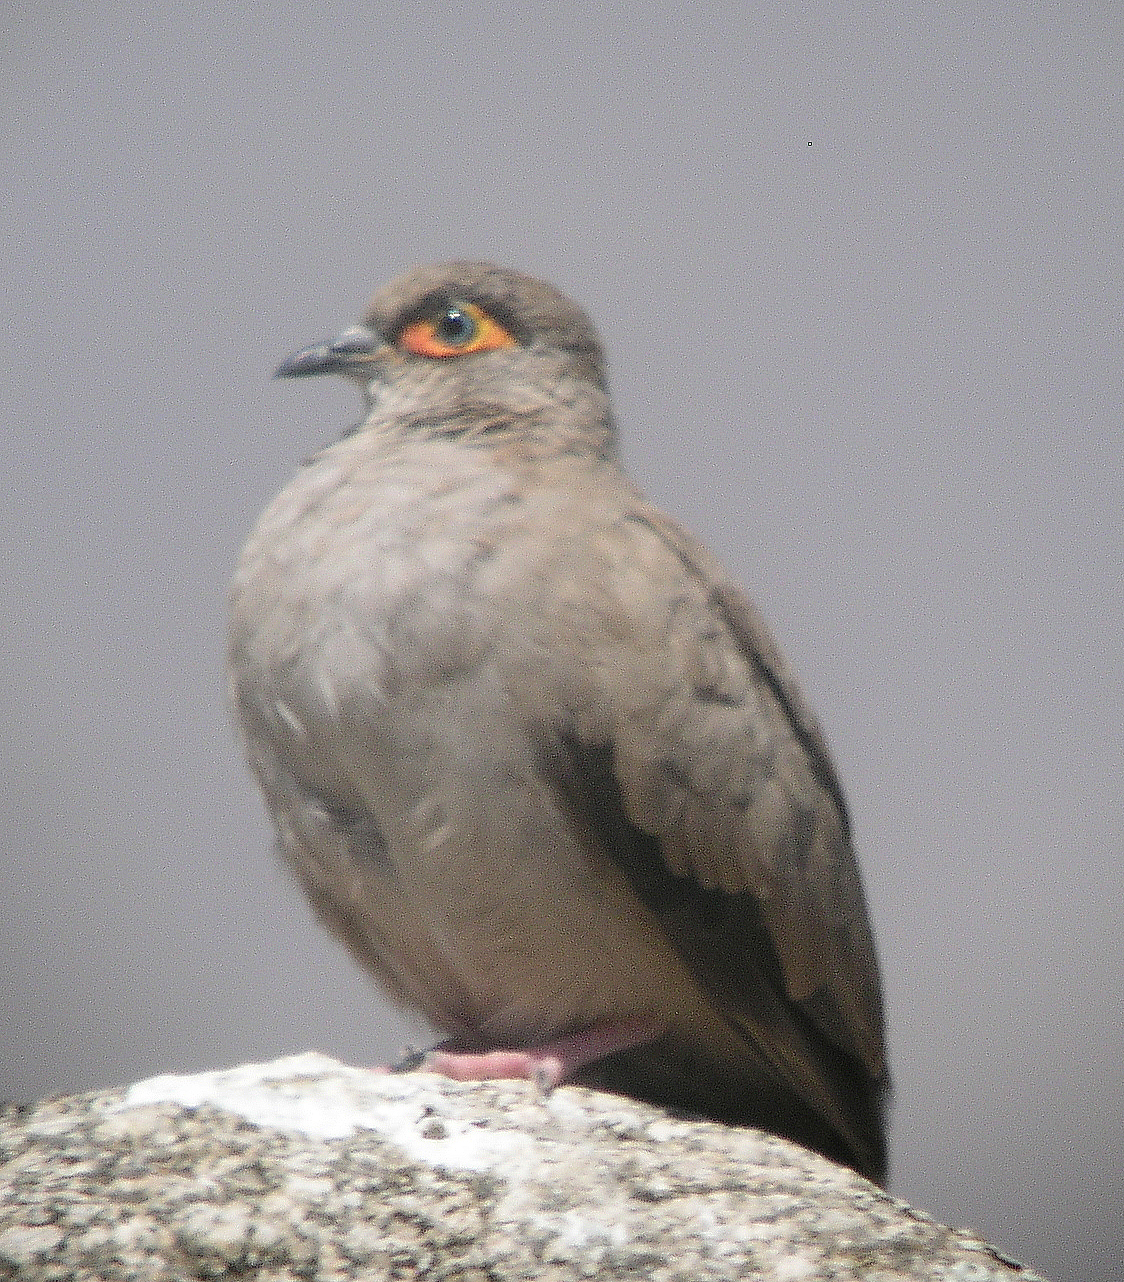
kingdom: Animalia
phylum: Chordata
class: Aves
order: Columbiformes
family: Columbidae
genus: Metriopelia
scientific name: Metriopelia morenoi
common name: Moreno's ground dove
